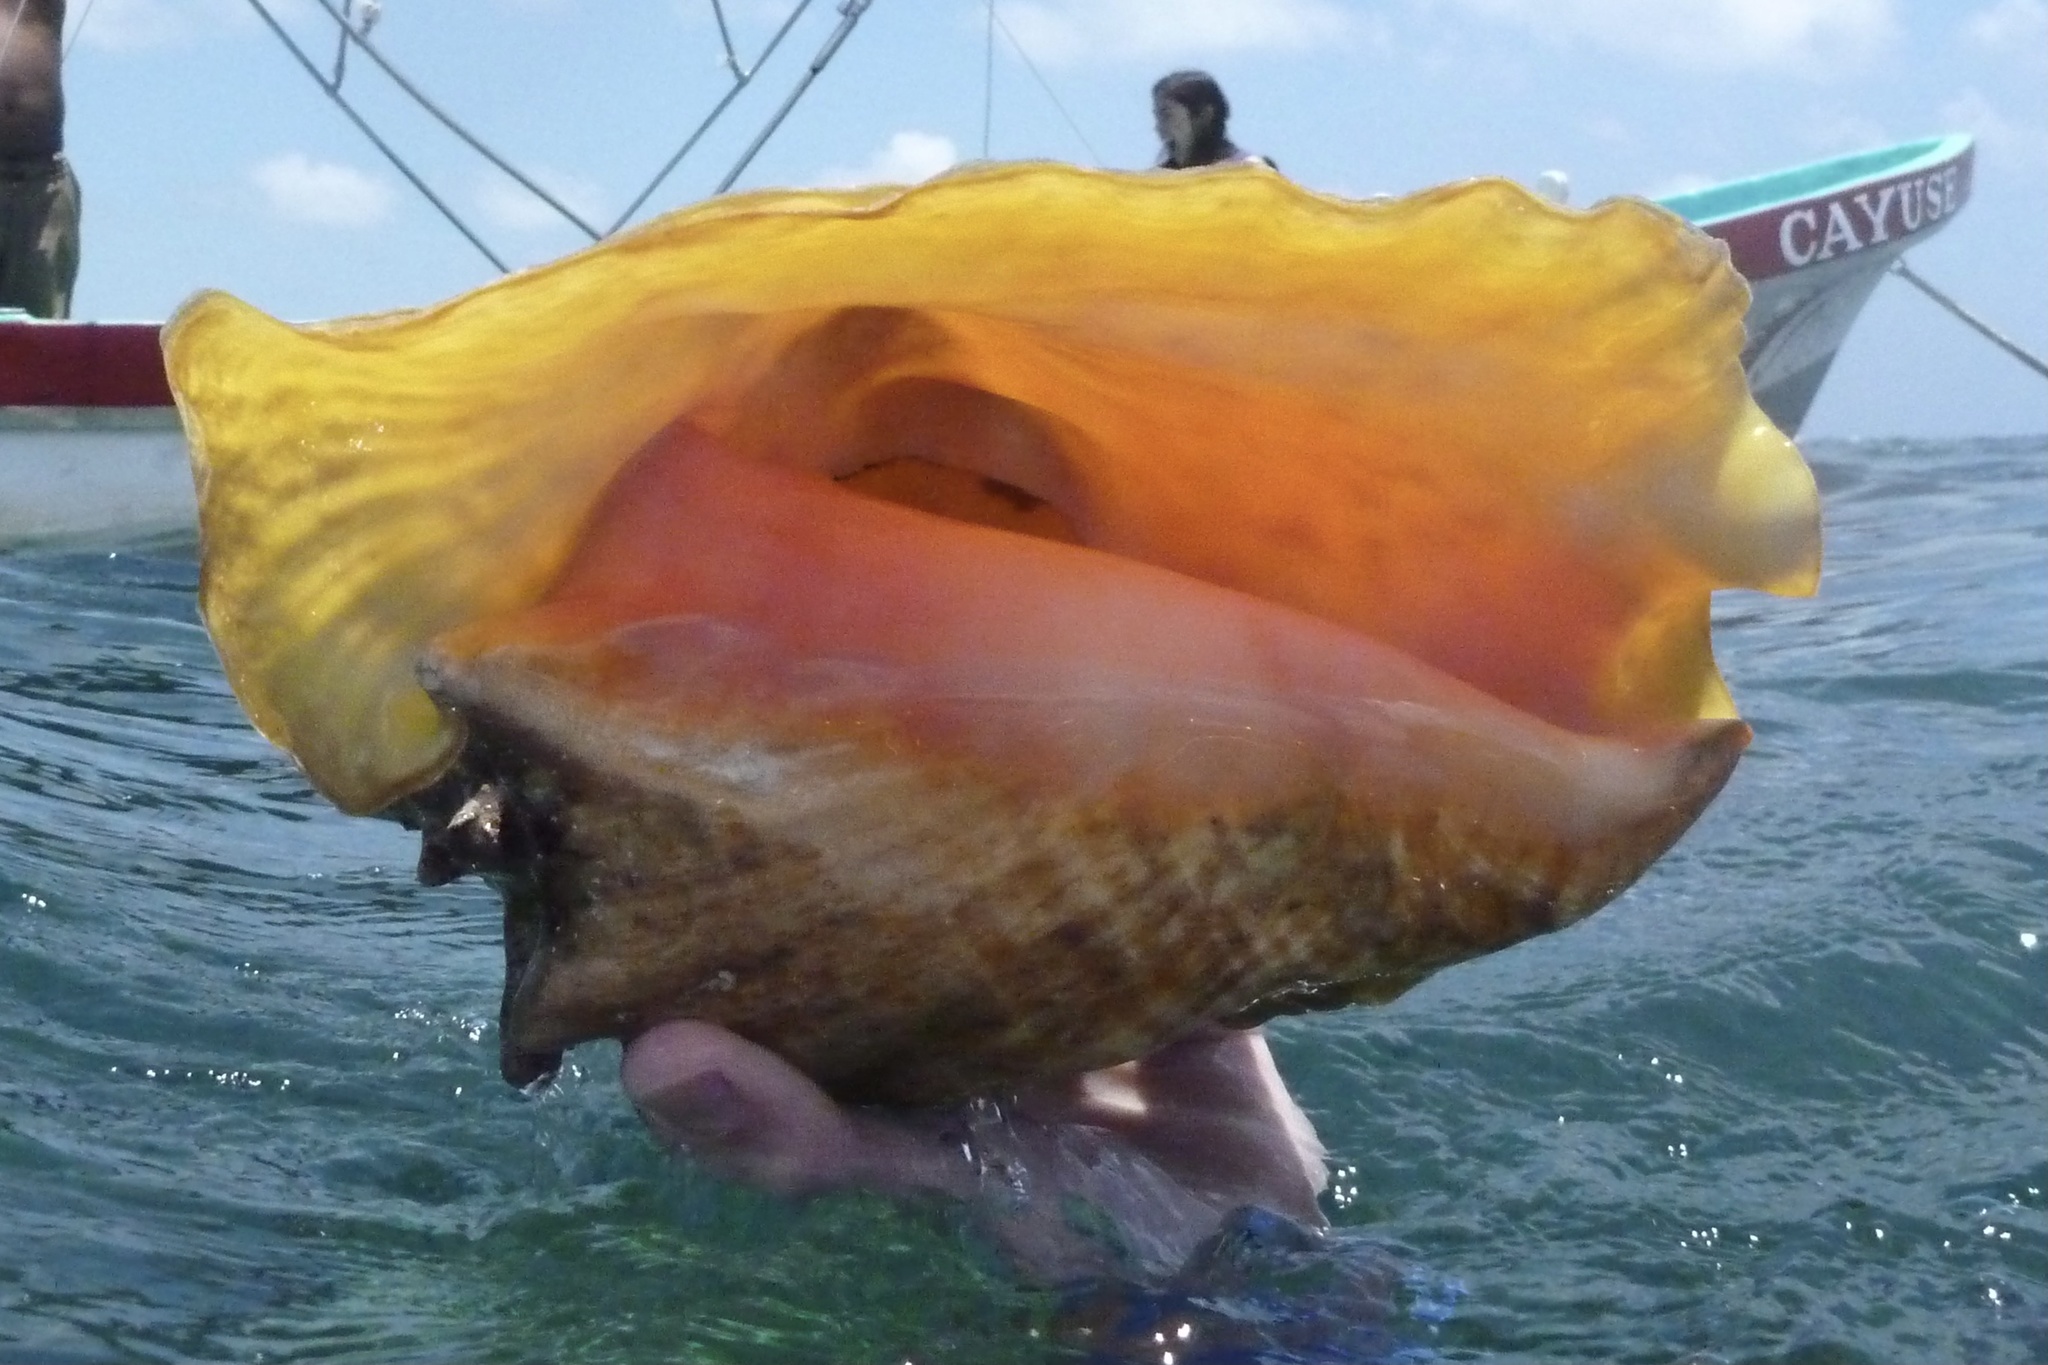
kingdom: Animalia
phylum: Mollusca
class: Gastropoda
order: Littorinimorpha
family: Strombidae
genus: Aliger
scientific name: Aliger gigas
